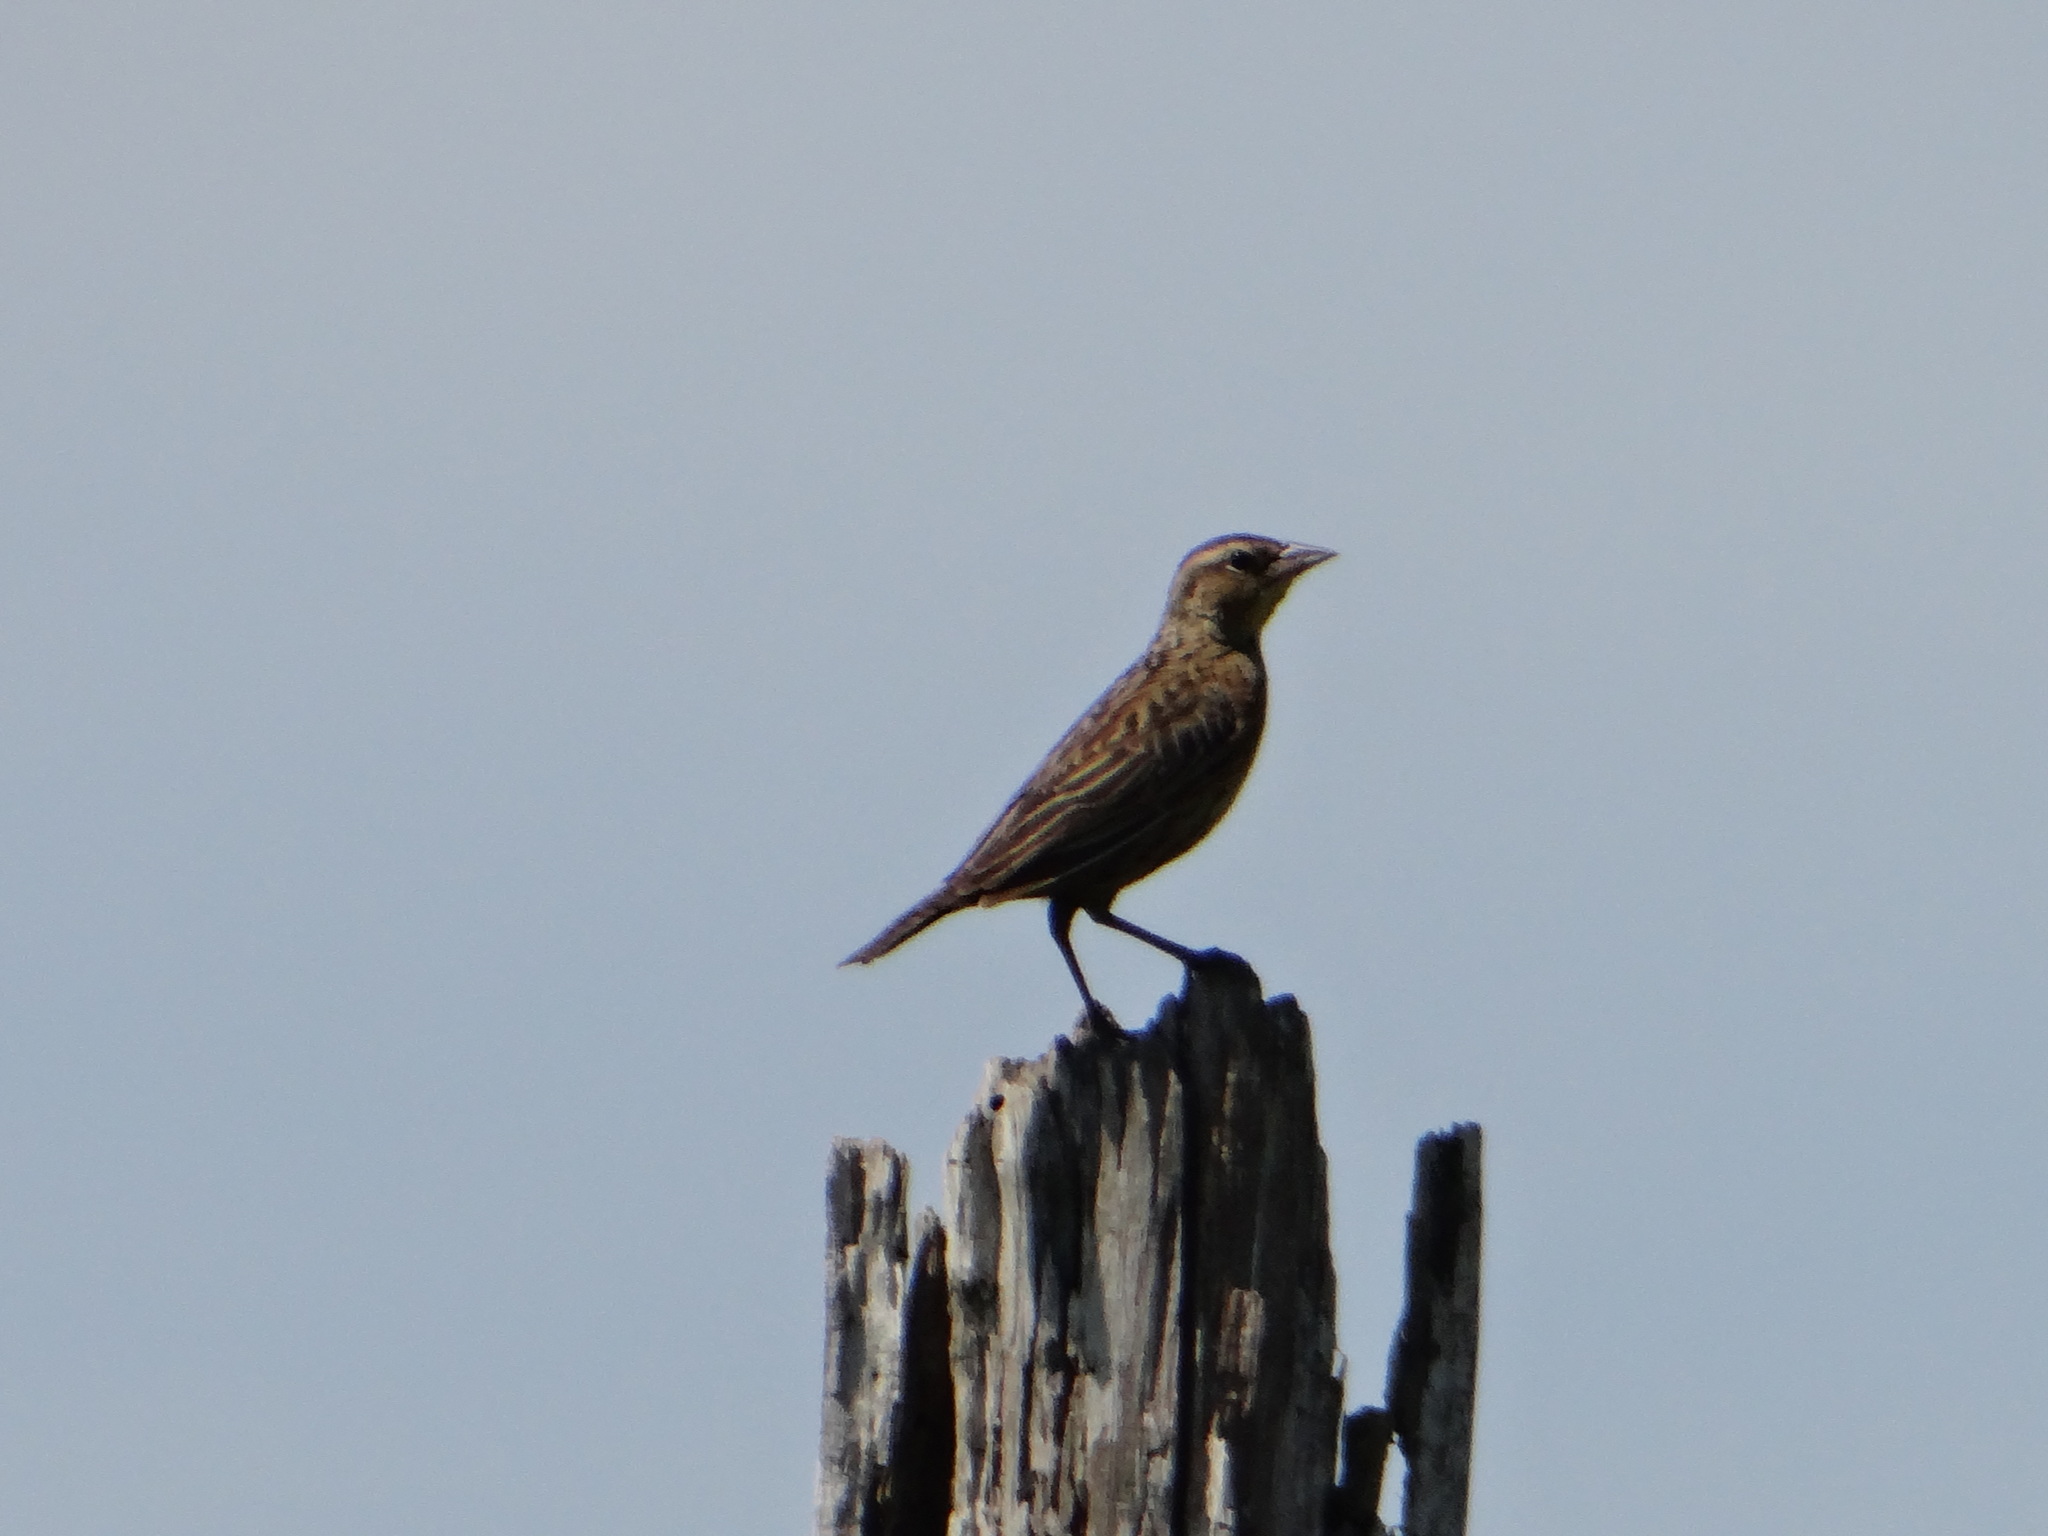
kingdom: Animalia
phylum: Chordata
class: Aves
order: Passeriformes
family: Icteridae
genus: Sturnella
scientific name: Sturnella militaris
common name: Red-breasted blackbird
